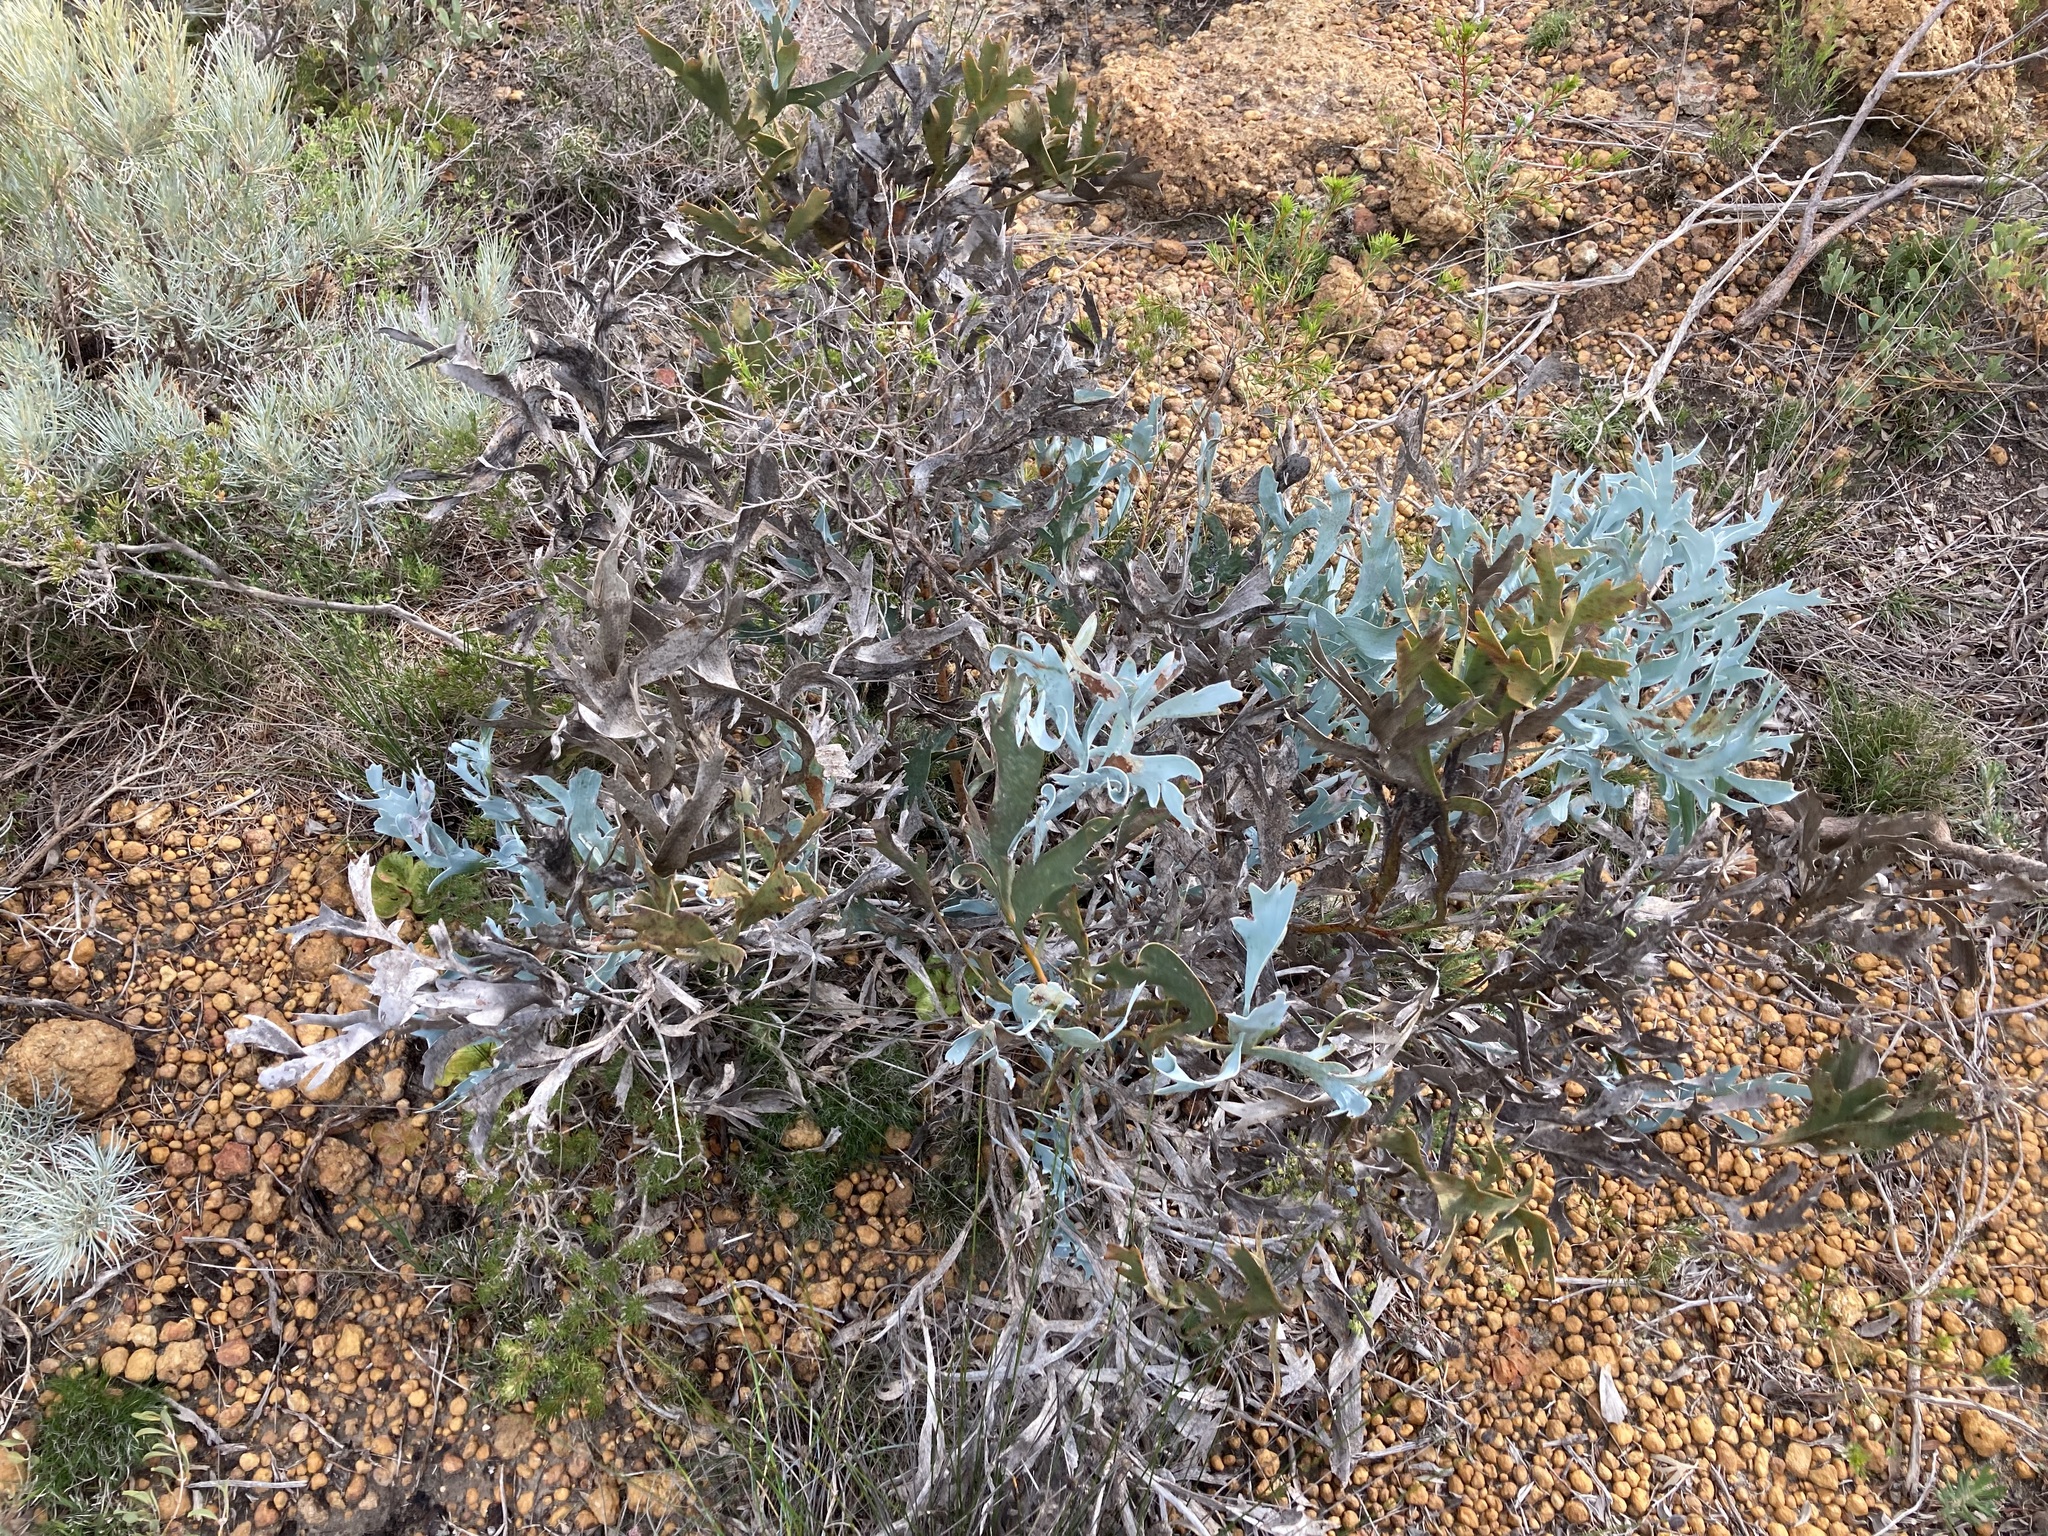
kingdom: Plantae
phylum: Tracheophyta
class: Magnoliopsida
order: Fabales
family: Fabaceae
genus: Daviesia
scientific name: Daviesia epiphyllum
